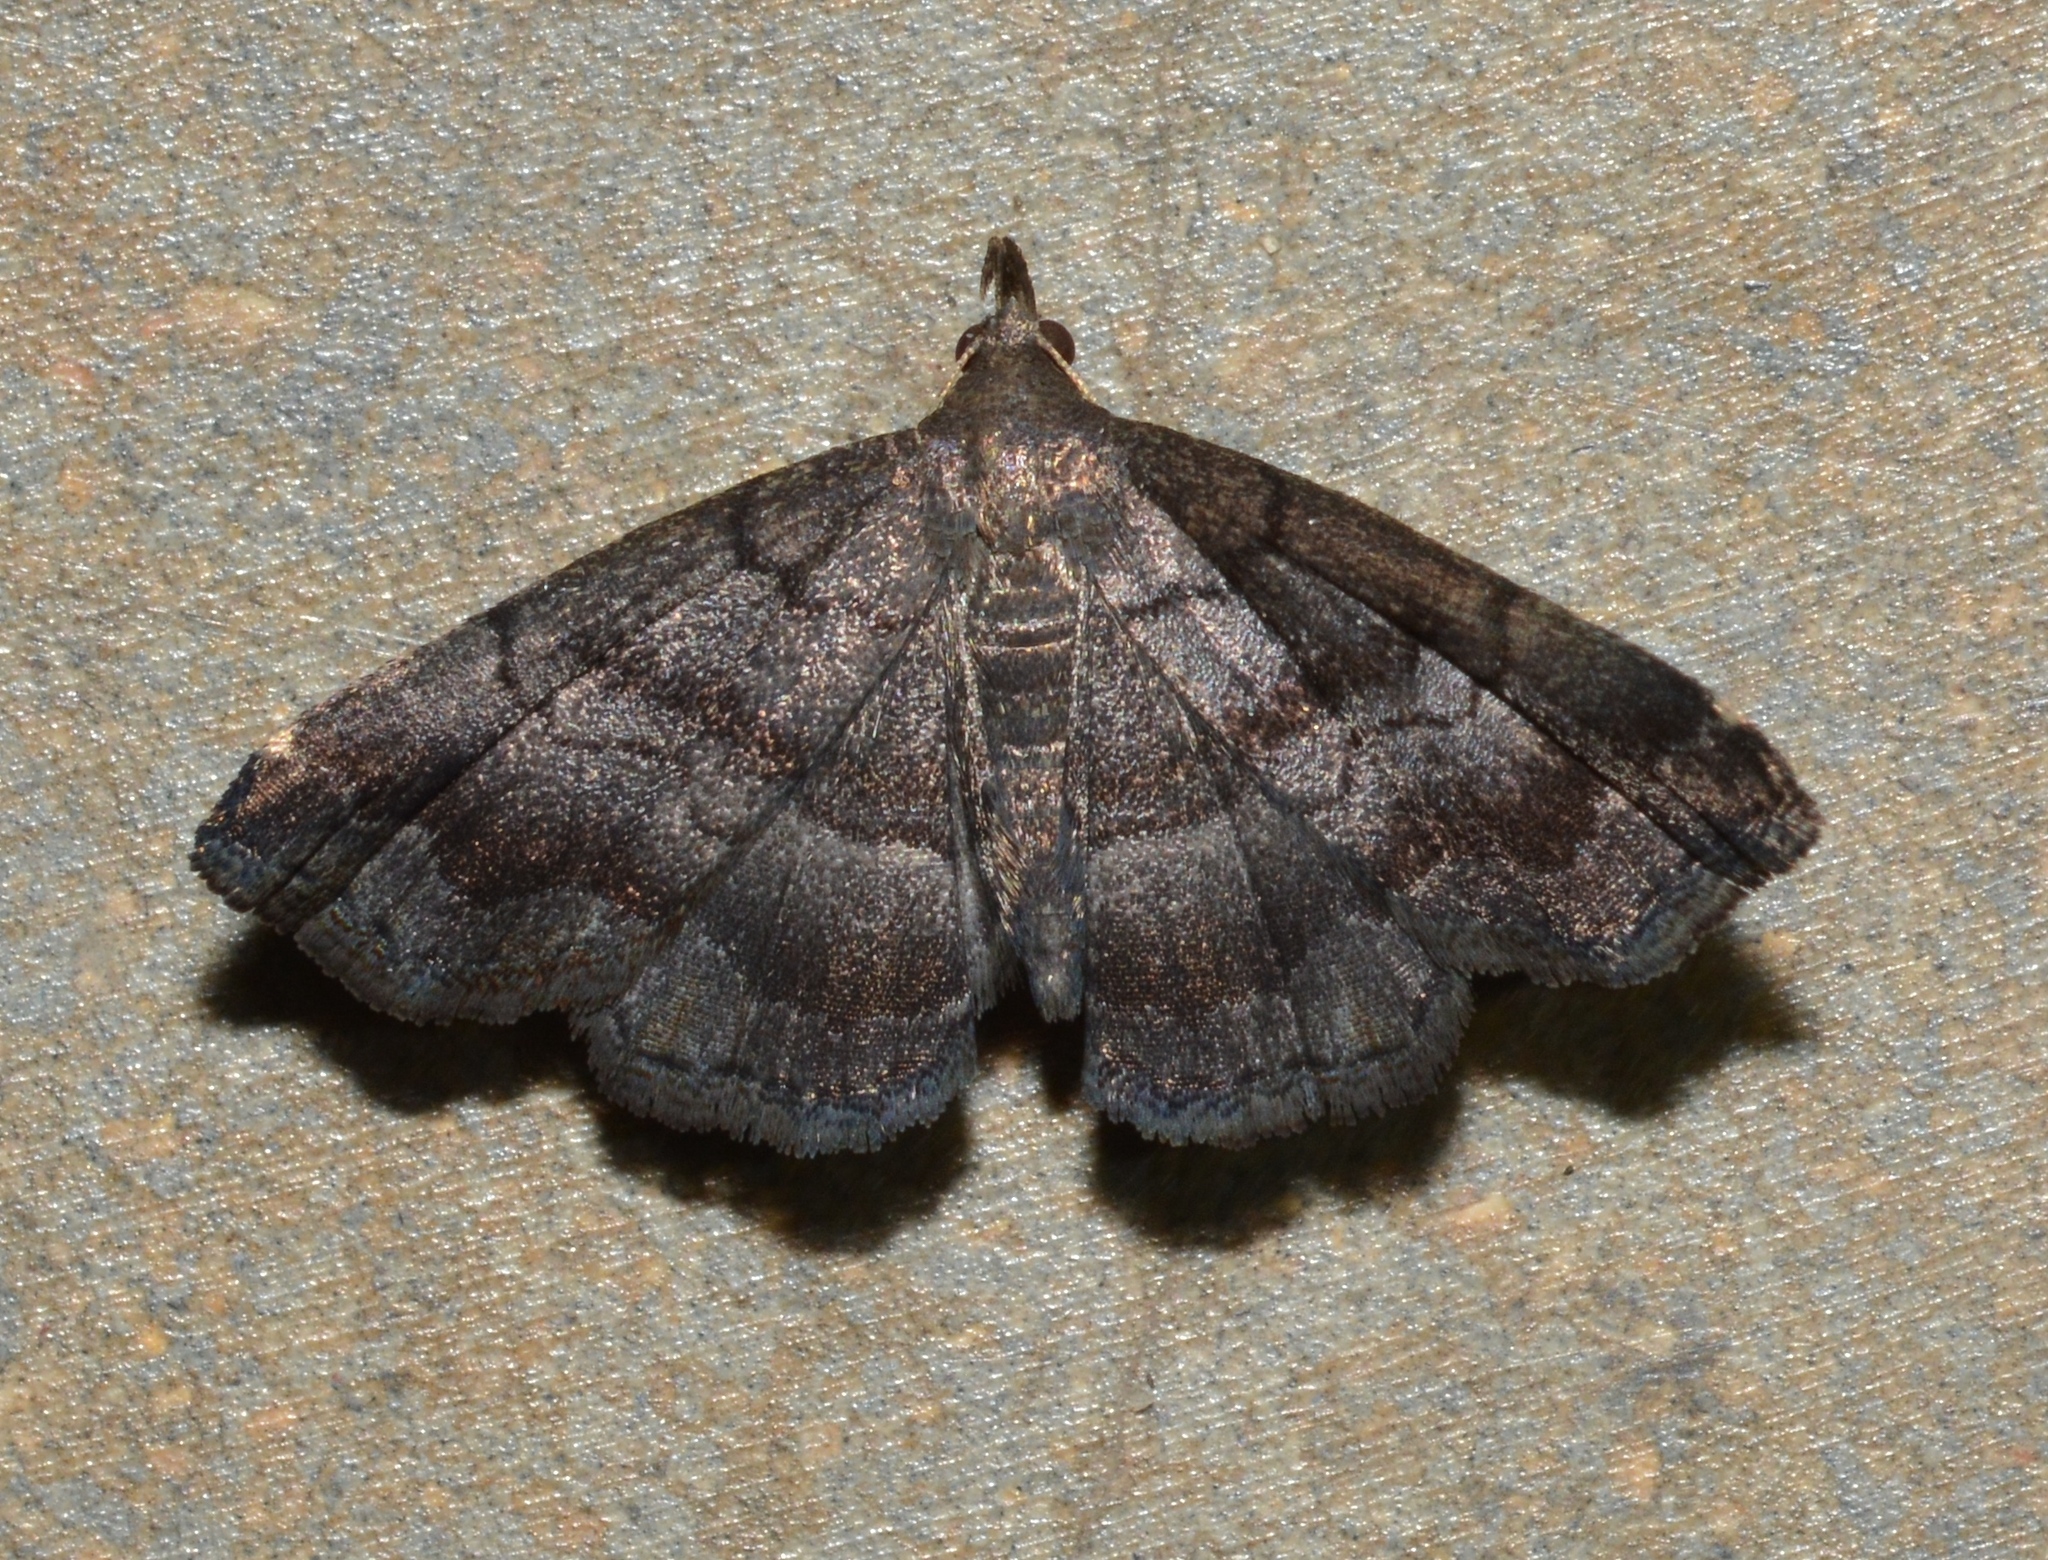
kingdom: Animalia
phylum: Arthropoda
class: Insecta
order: Lepidoptera
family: Erebidae
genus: Phalaenostola
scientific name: Phalaenostola larentioides
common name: Black-banded owlet
